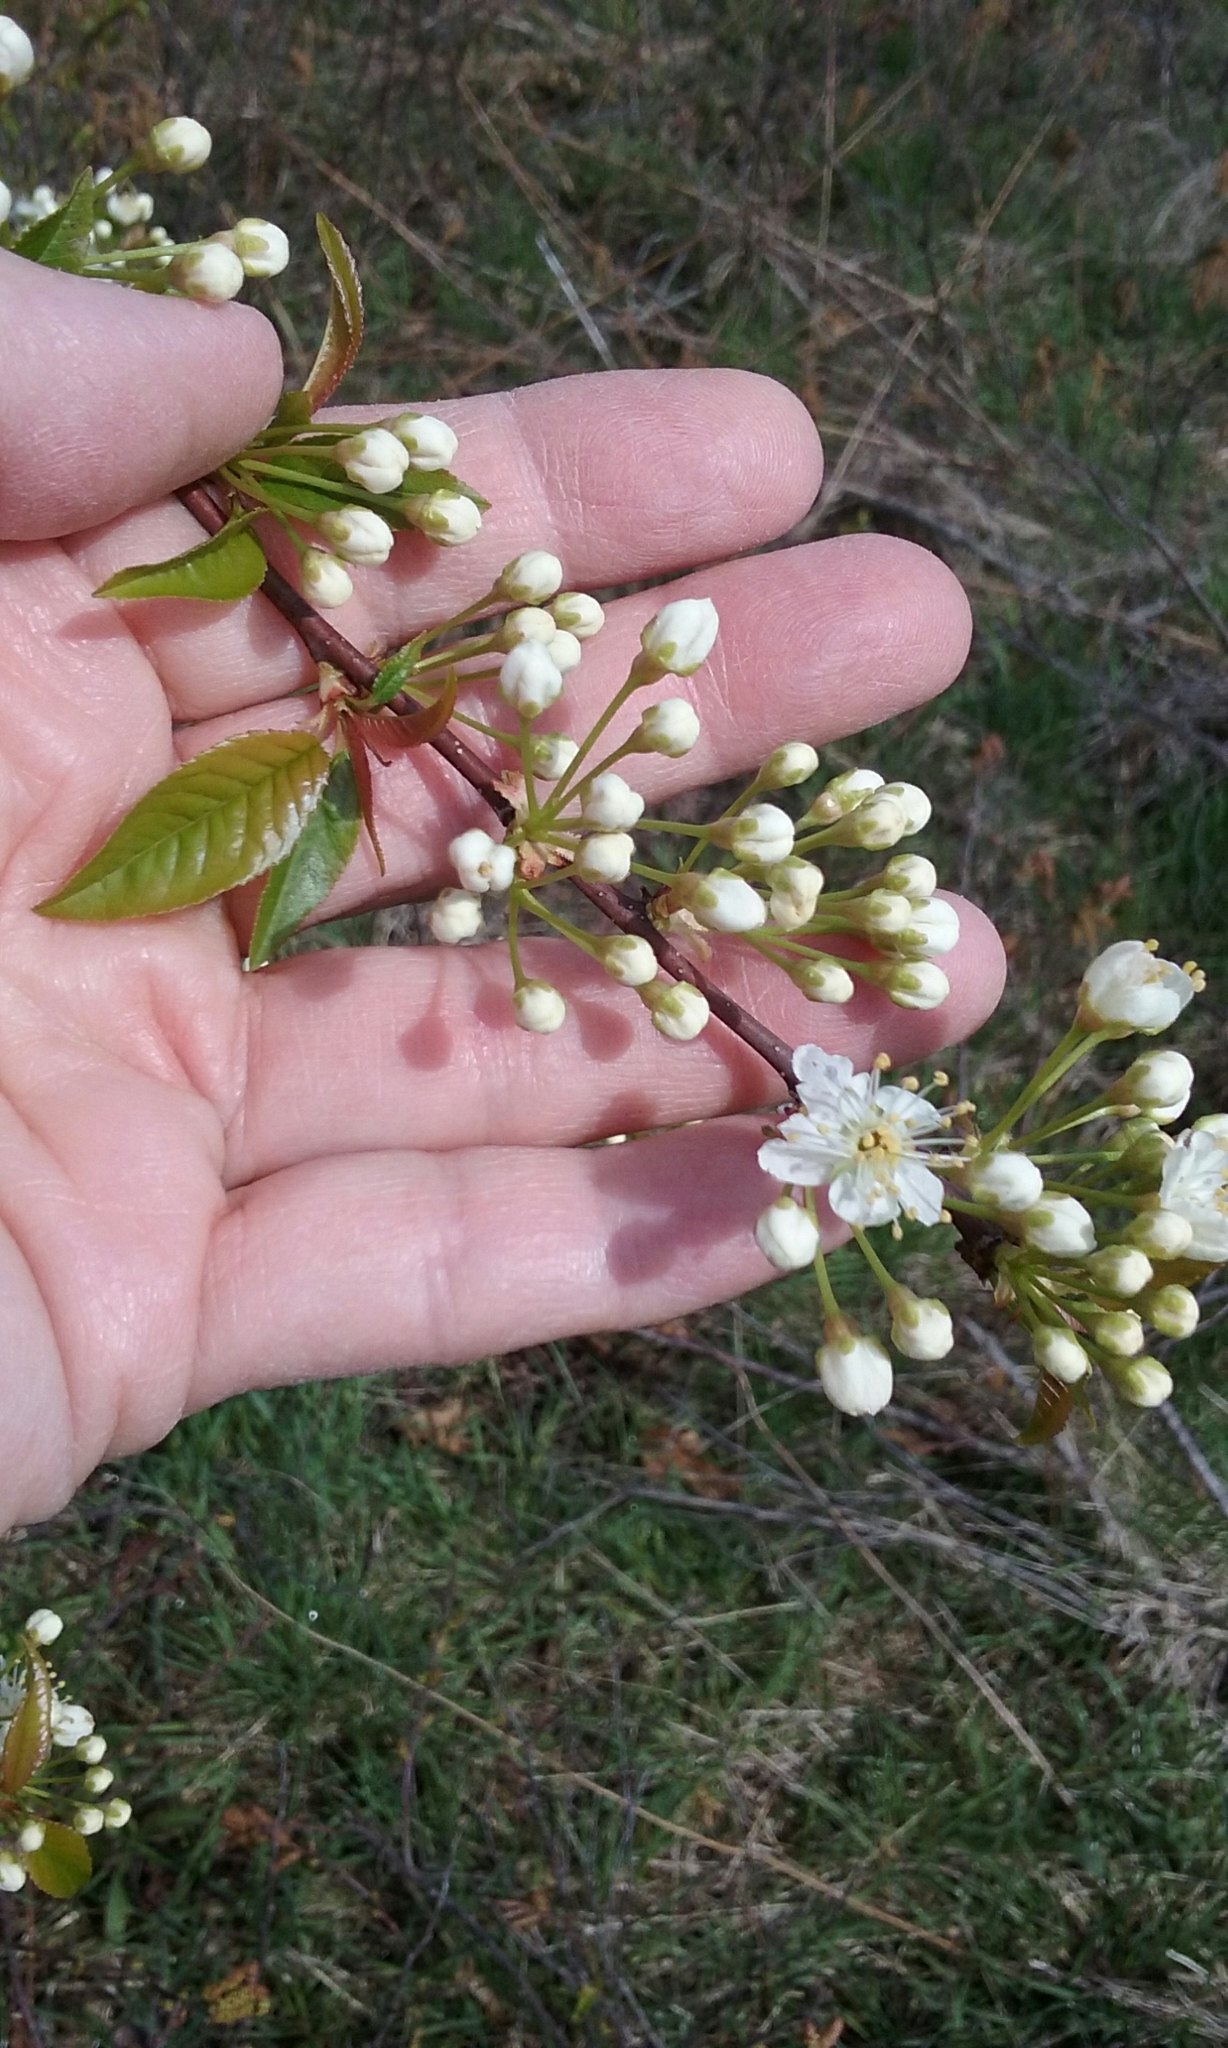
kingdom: Plantae
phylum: Tracheophyta
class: Magnoliopsida
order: Rosales
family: Rosaceae
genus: Prunus
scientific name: Prunus pensylvanica
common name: Pin cherry
